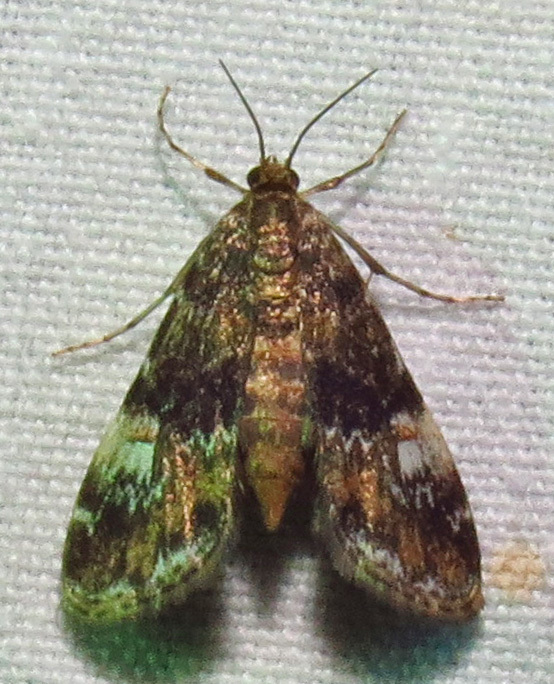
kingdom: Animalia
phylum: Arthropoda
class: Insecta
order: Lepidoptera
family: Crambidae
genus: Elophila
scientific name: Elophila obliteralis
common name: Waterlily leafcutter moth
